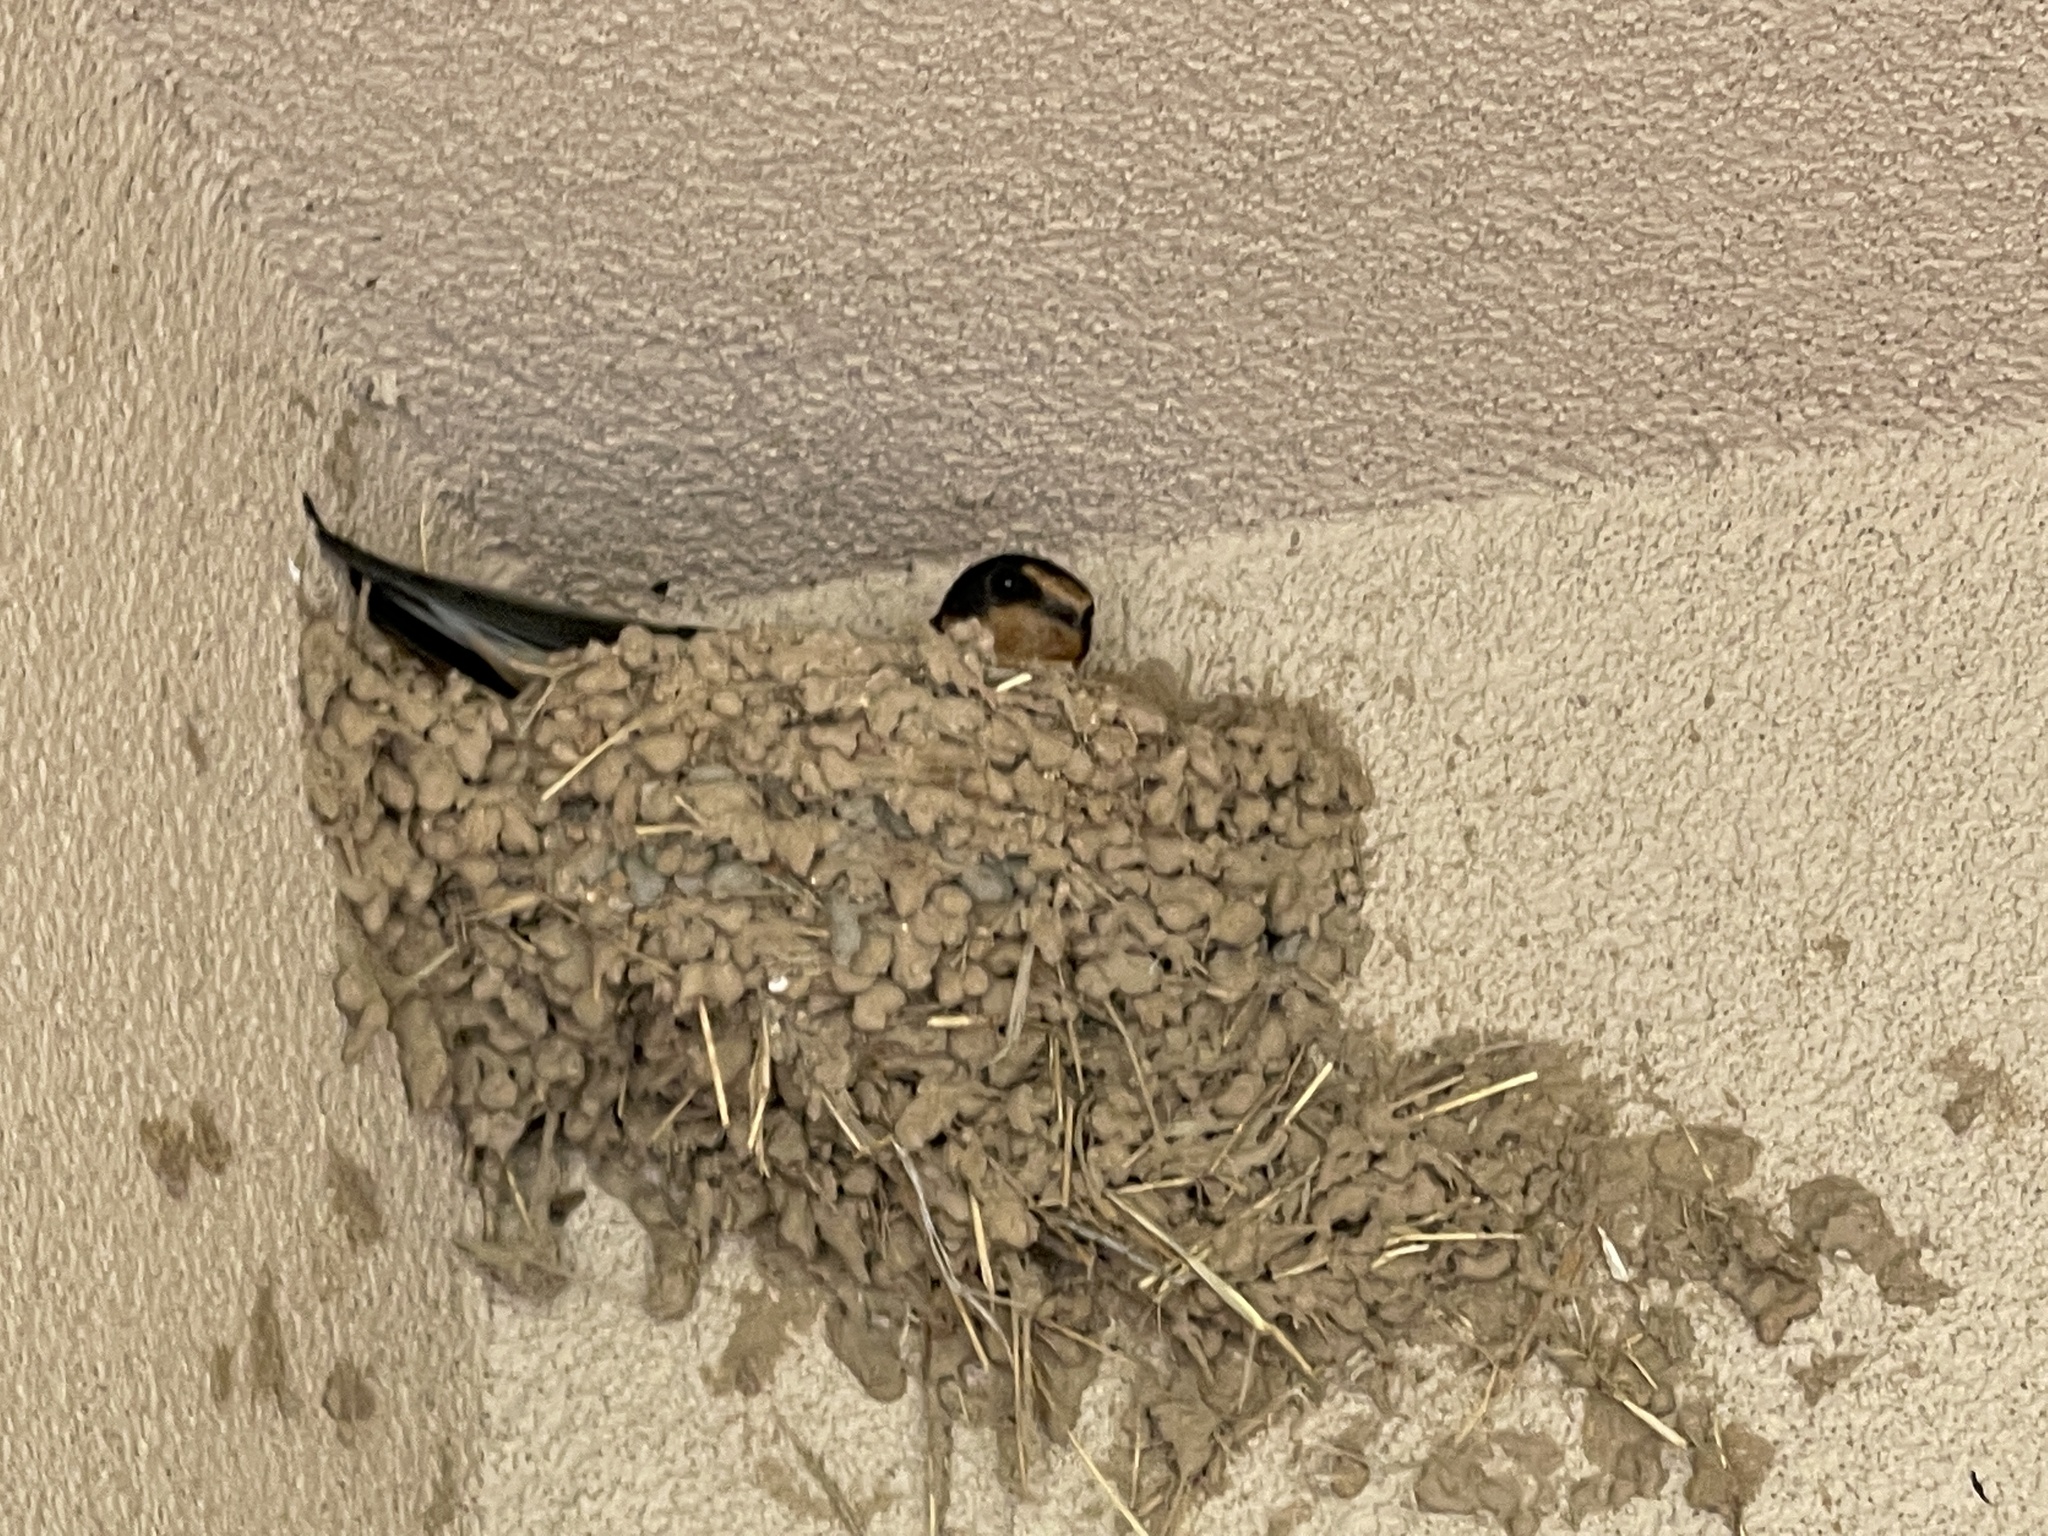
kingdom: Animalia
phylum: Chordata
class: Aves
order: Passeriformes
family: Hirundinidae
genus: Hirundo
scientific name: Hirundo rustica
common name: Barn swallow
